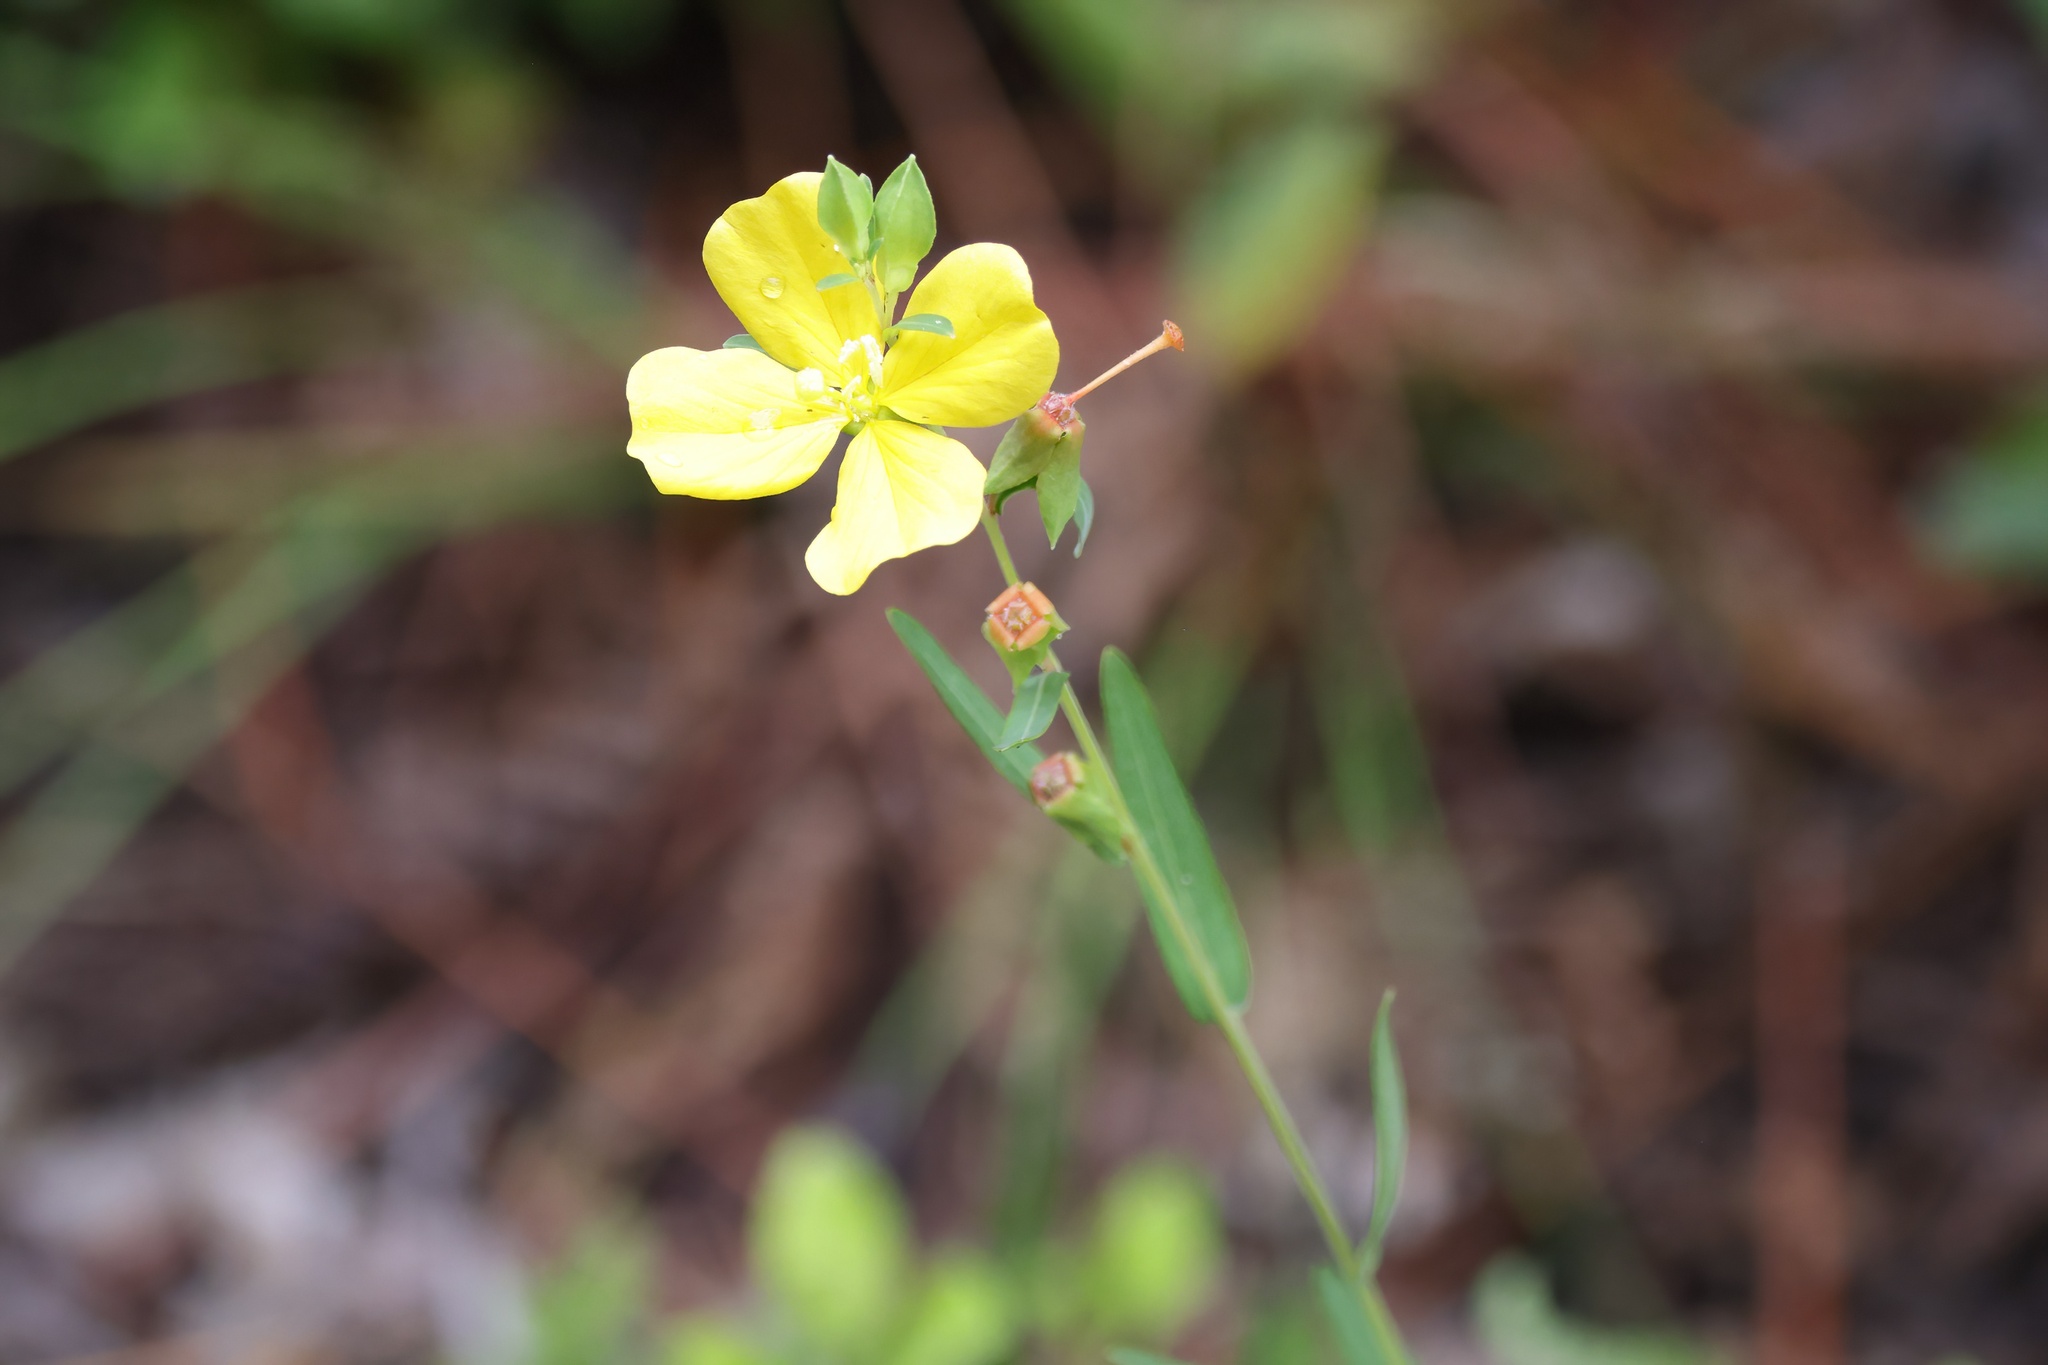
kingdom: Plantae
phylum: Tracheophyta
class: Magnoliopsida
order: Myrtales
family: Onagraceae
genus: Ludwigia
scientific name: Ludwigia virgata
